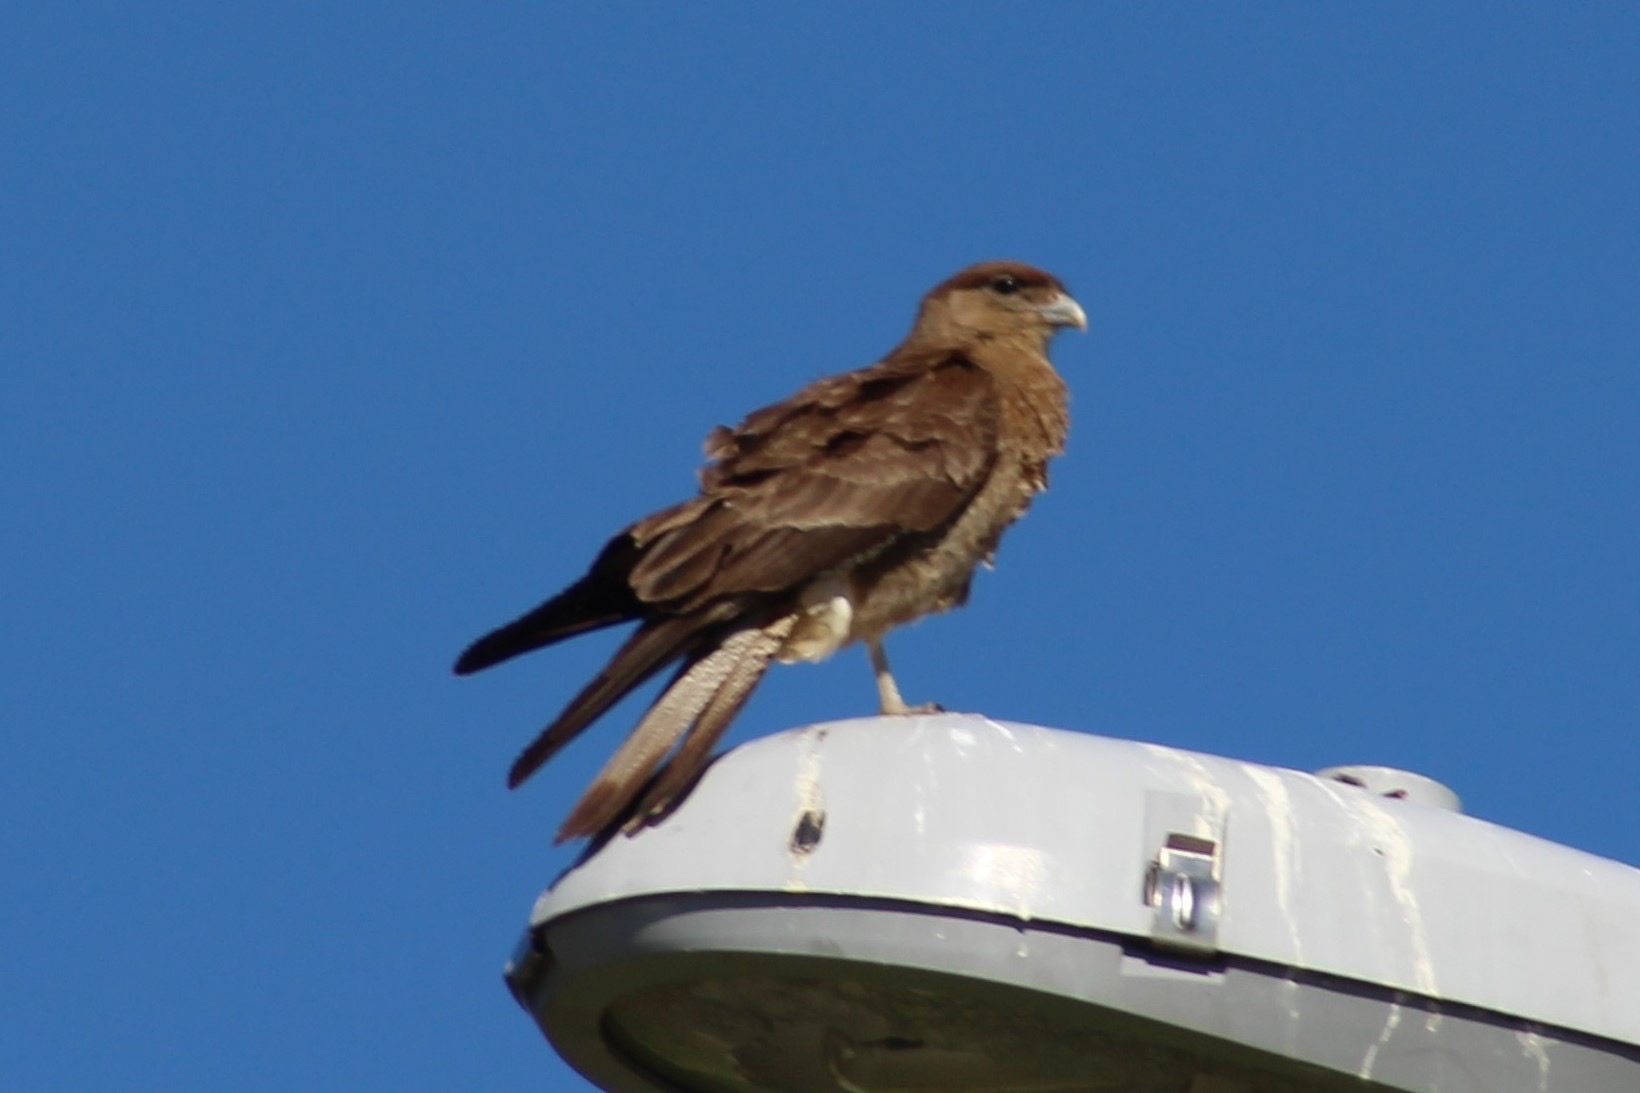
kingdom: Animalia
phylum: Chordata
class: Aves
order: Falconiformes
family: Falconidae
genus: Daptrius
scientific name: Daptrius
